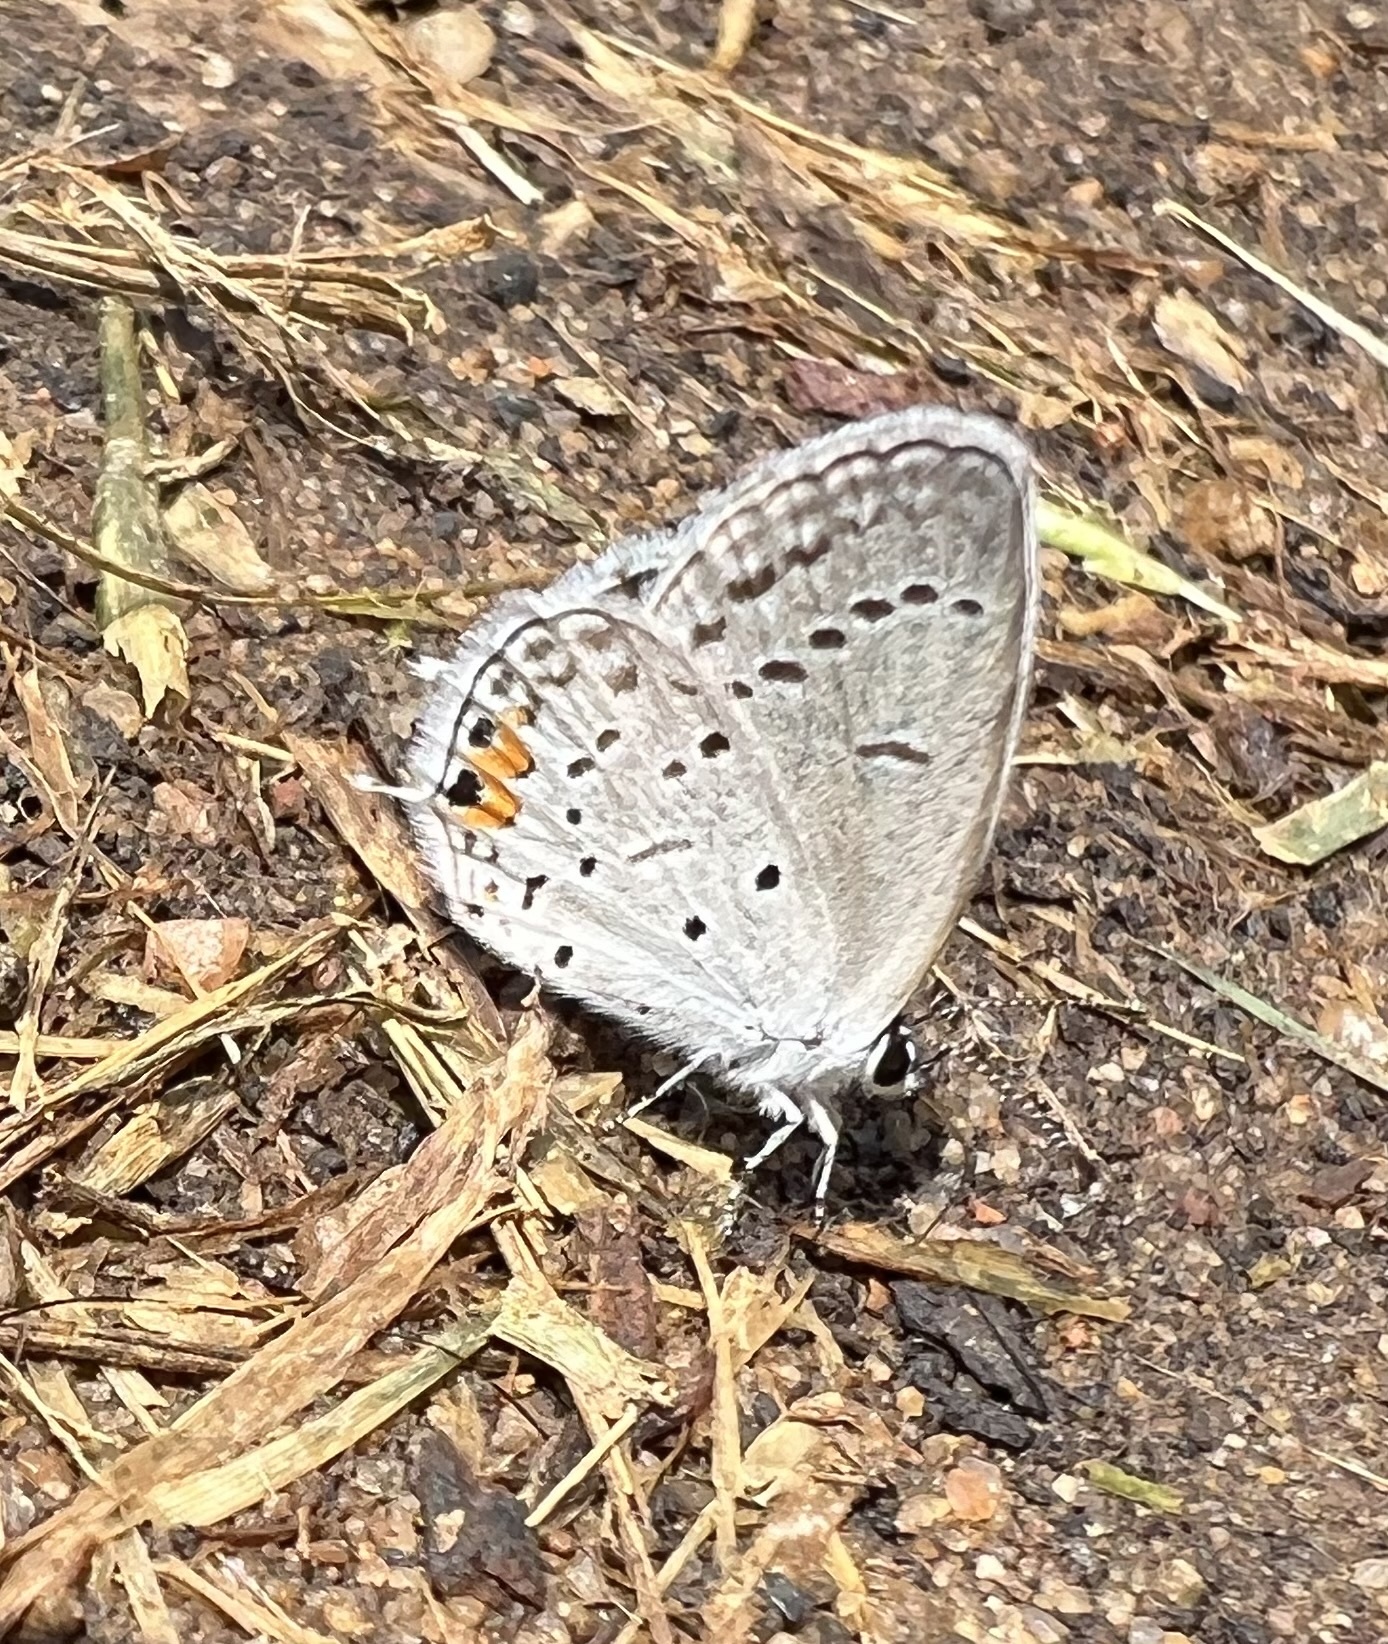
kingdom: Animalia
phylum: Arthropoda
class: Insecta
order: Lepidoptera
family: Lycaenidae
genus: Elkalyce
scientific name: Elkalyce comyntas
